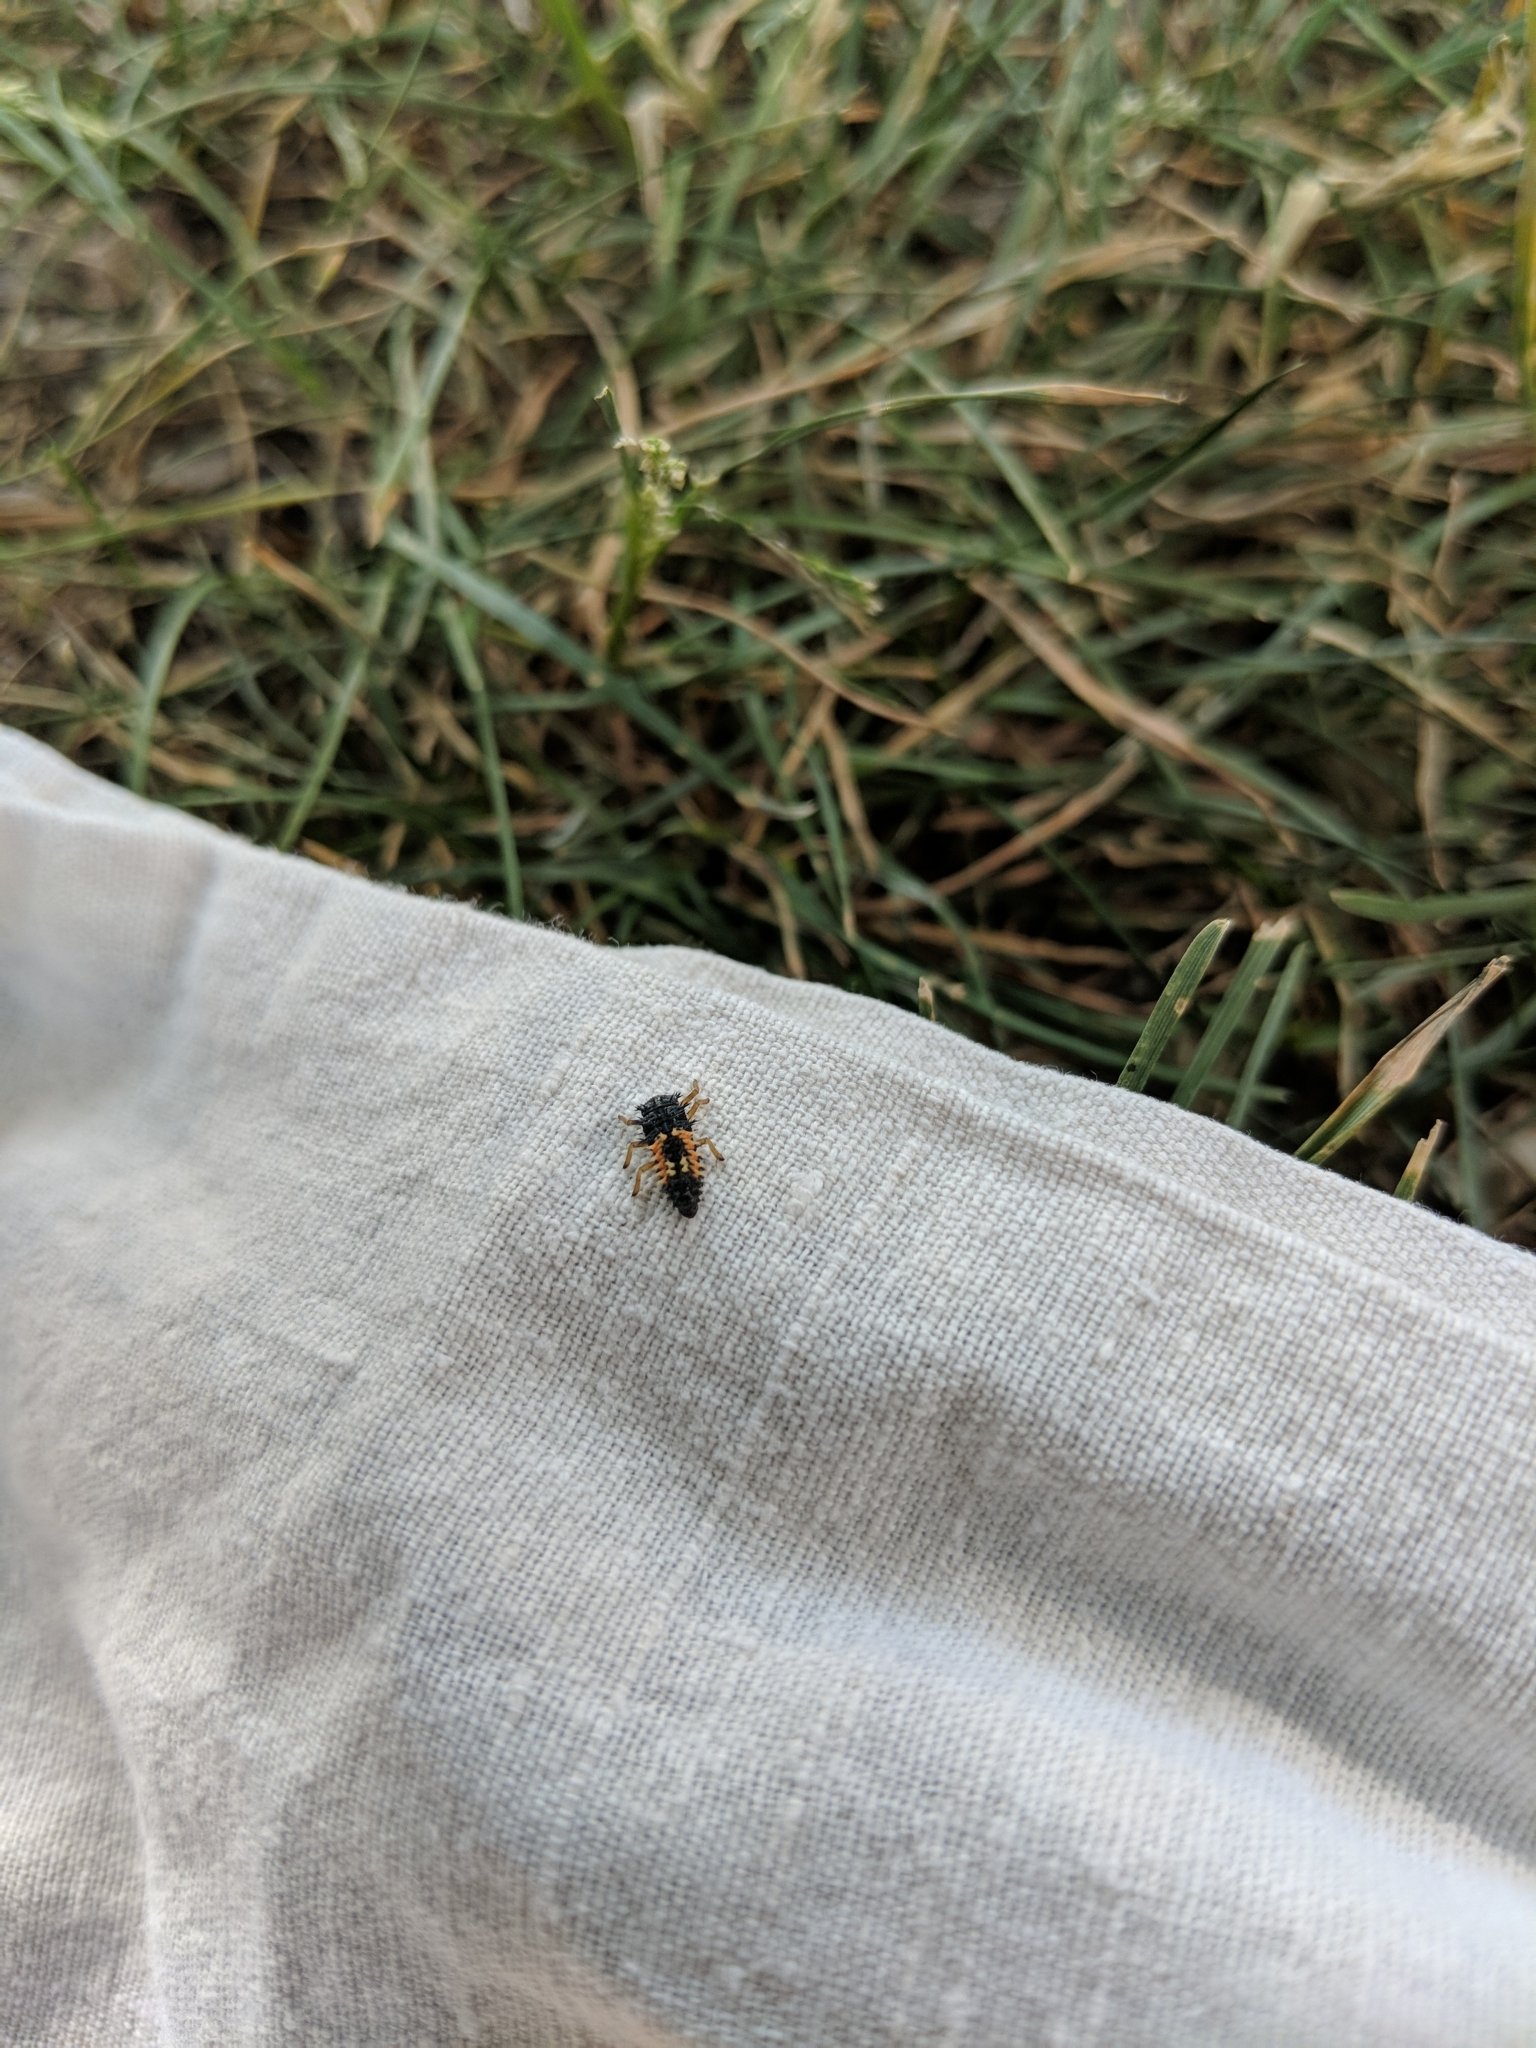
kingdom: Animalia
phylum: Arthropoda
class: Insecta
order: Coleoptera
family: Coccinellidae
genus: Harmonia
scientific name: Harmonia axyridis
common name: Harlequin ladybird
